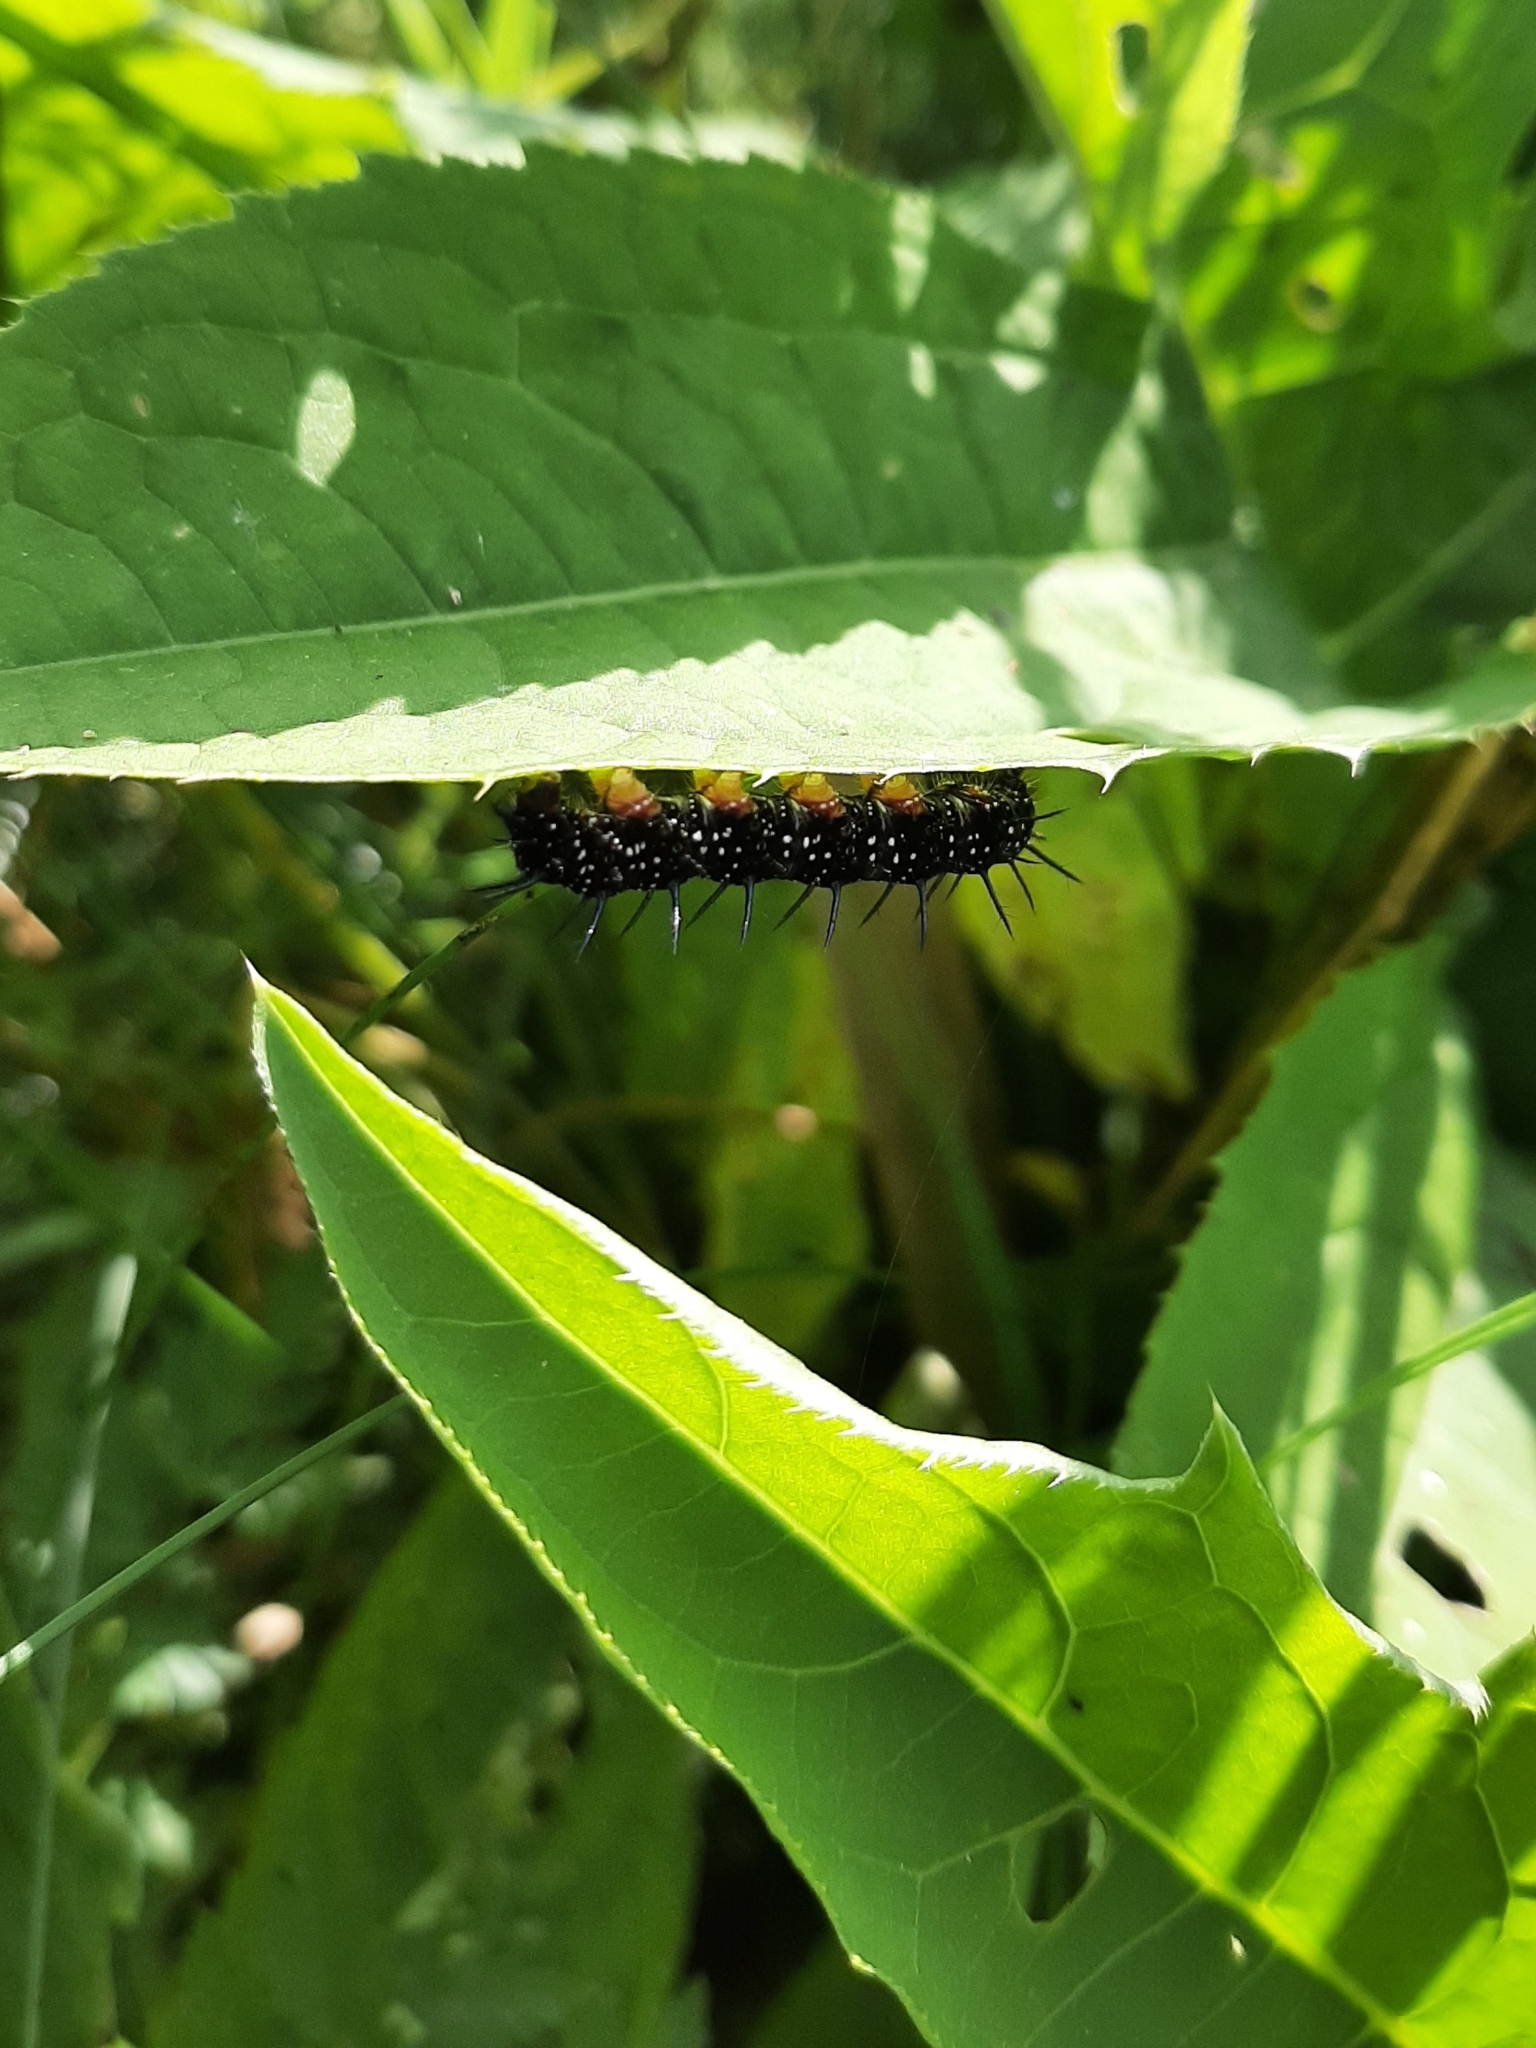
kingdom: Animalia
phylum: Arthropoda
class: Insecta
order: Lepidoptera
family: Nymphalidae
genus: Aglais
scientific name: Aglais io
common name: Peacock
